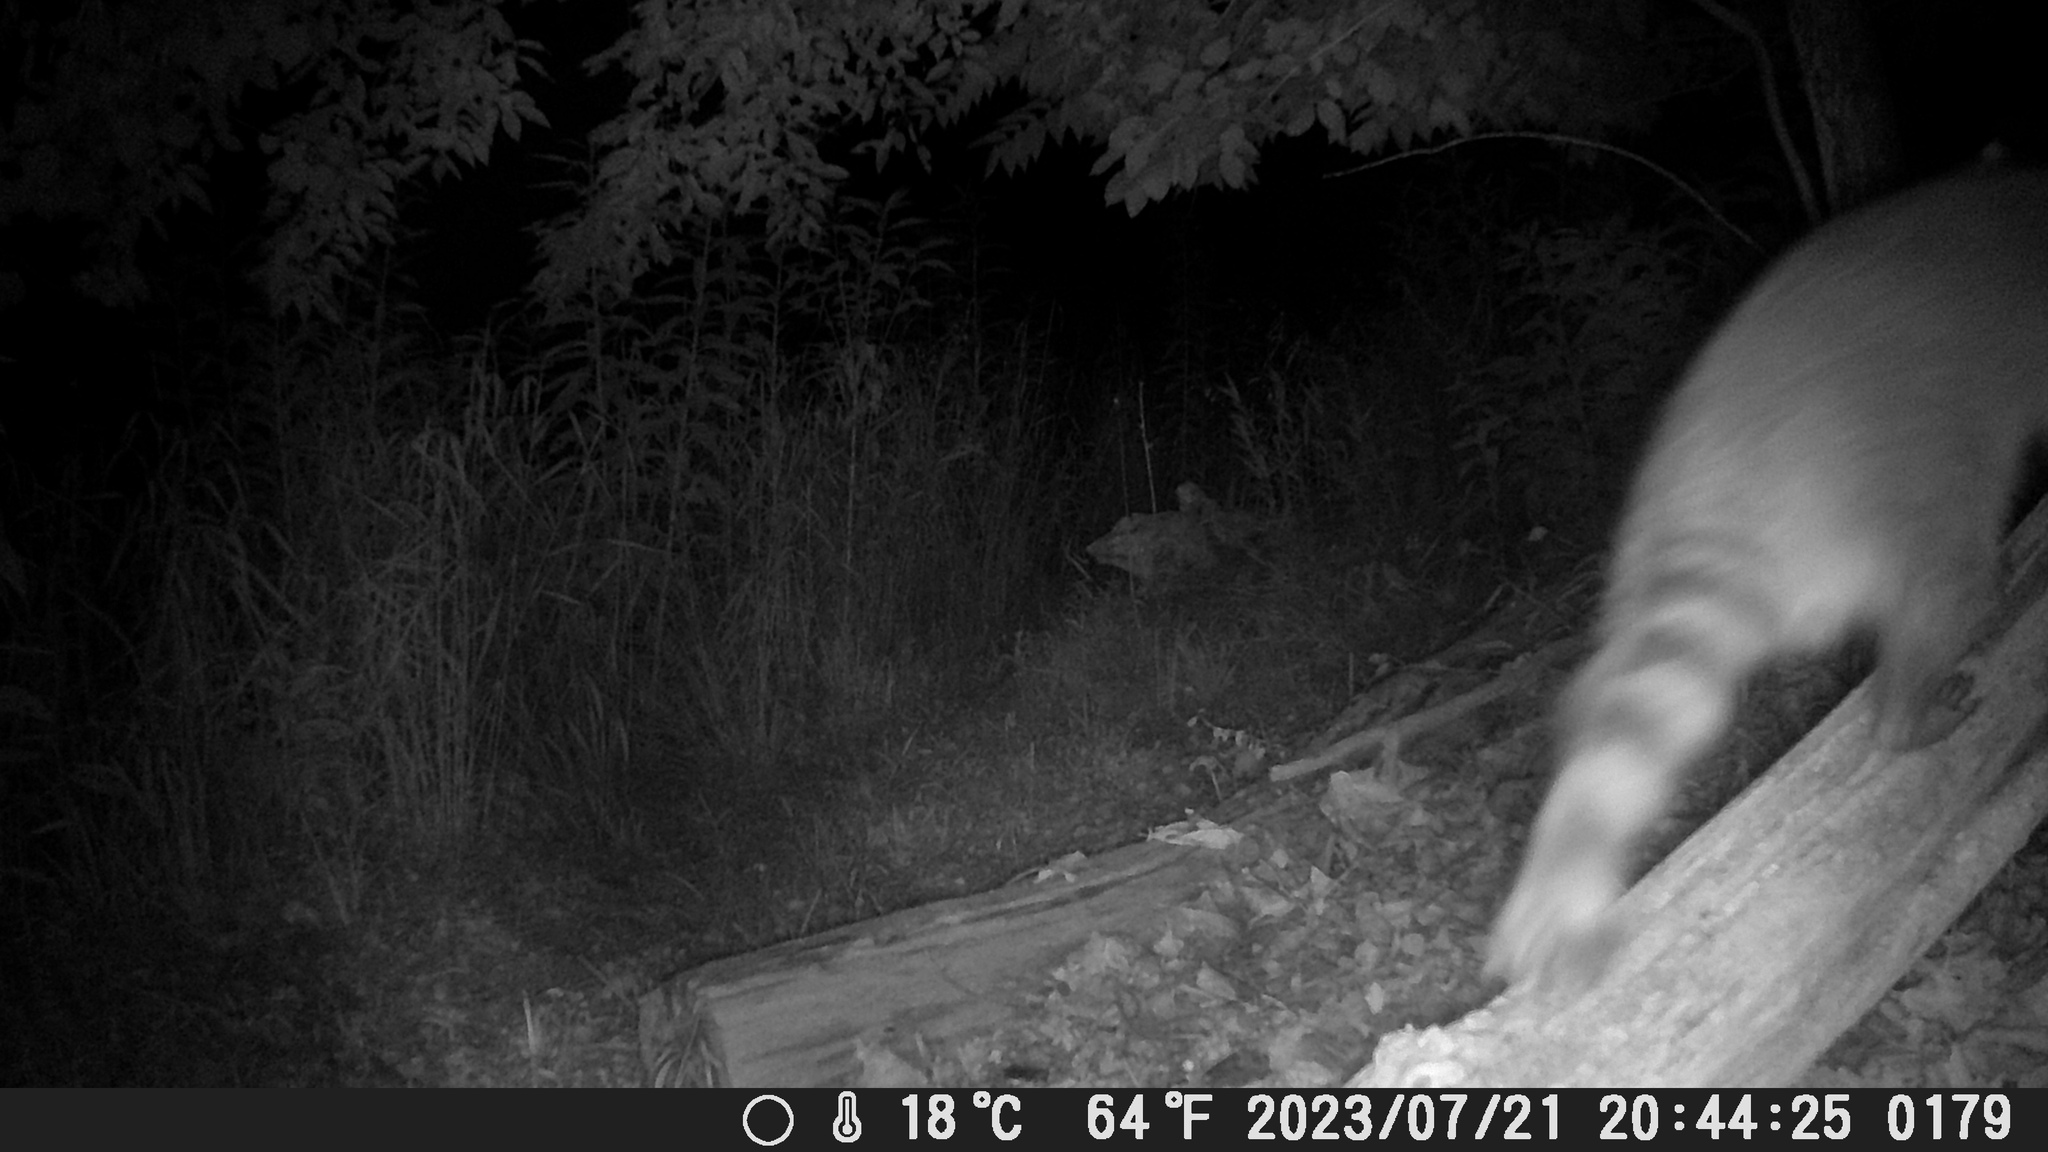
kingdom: Animalia
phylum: Chordata
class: Mammalia
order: Carnivora
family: Procyonidae
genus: Procyon
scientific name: Procyon lotor
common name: Raccoon
